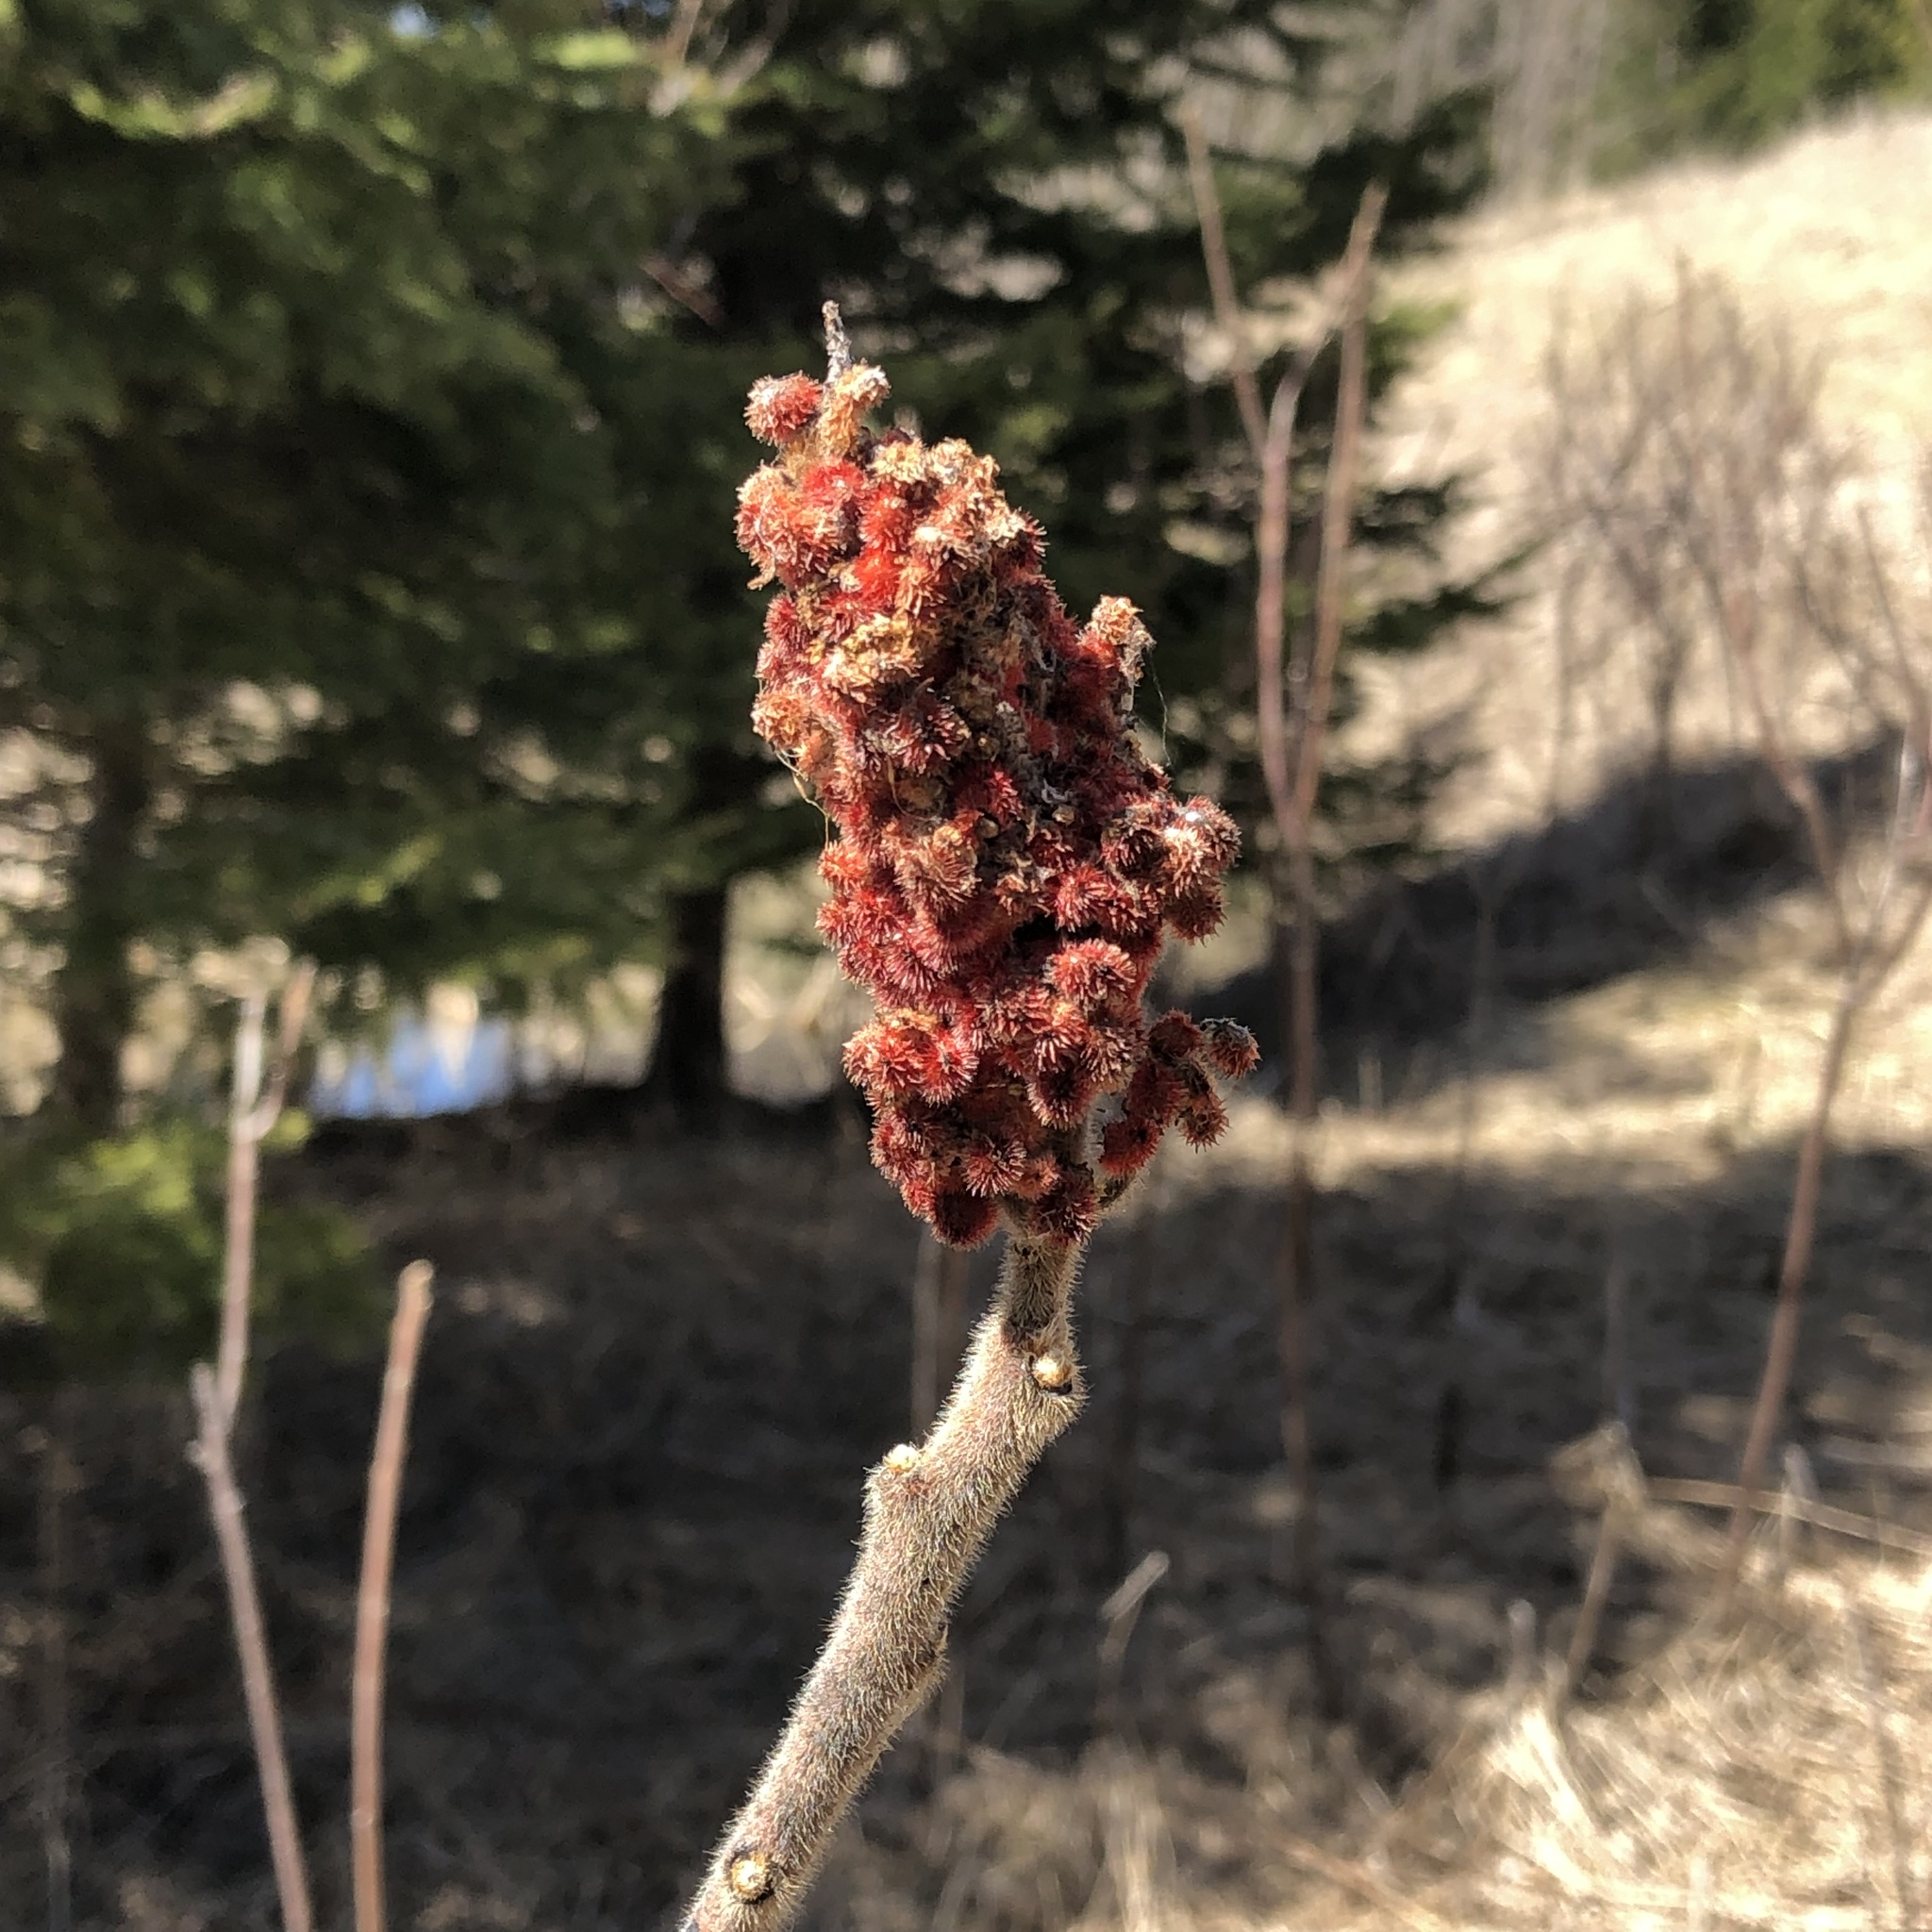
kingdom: Plantae
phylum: Tracheophyta
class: Magnoliopsida
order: Sapindales
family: Anacardiaceae
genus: Rhus
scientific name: Rhus typhina
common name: Staghorn sumac
